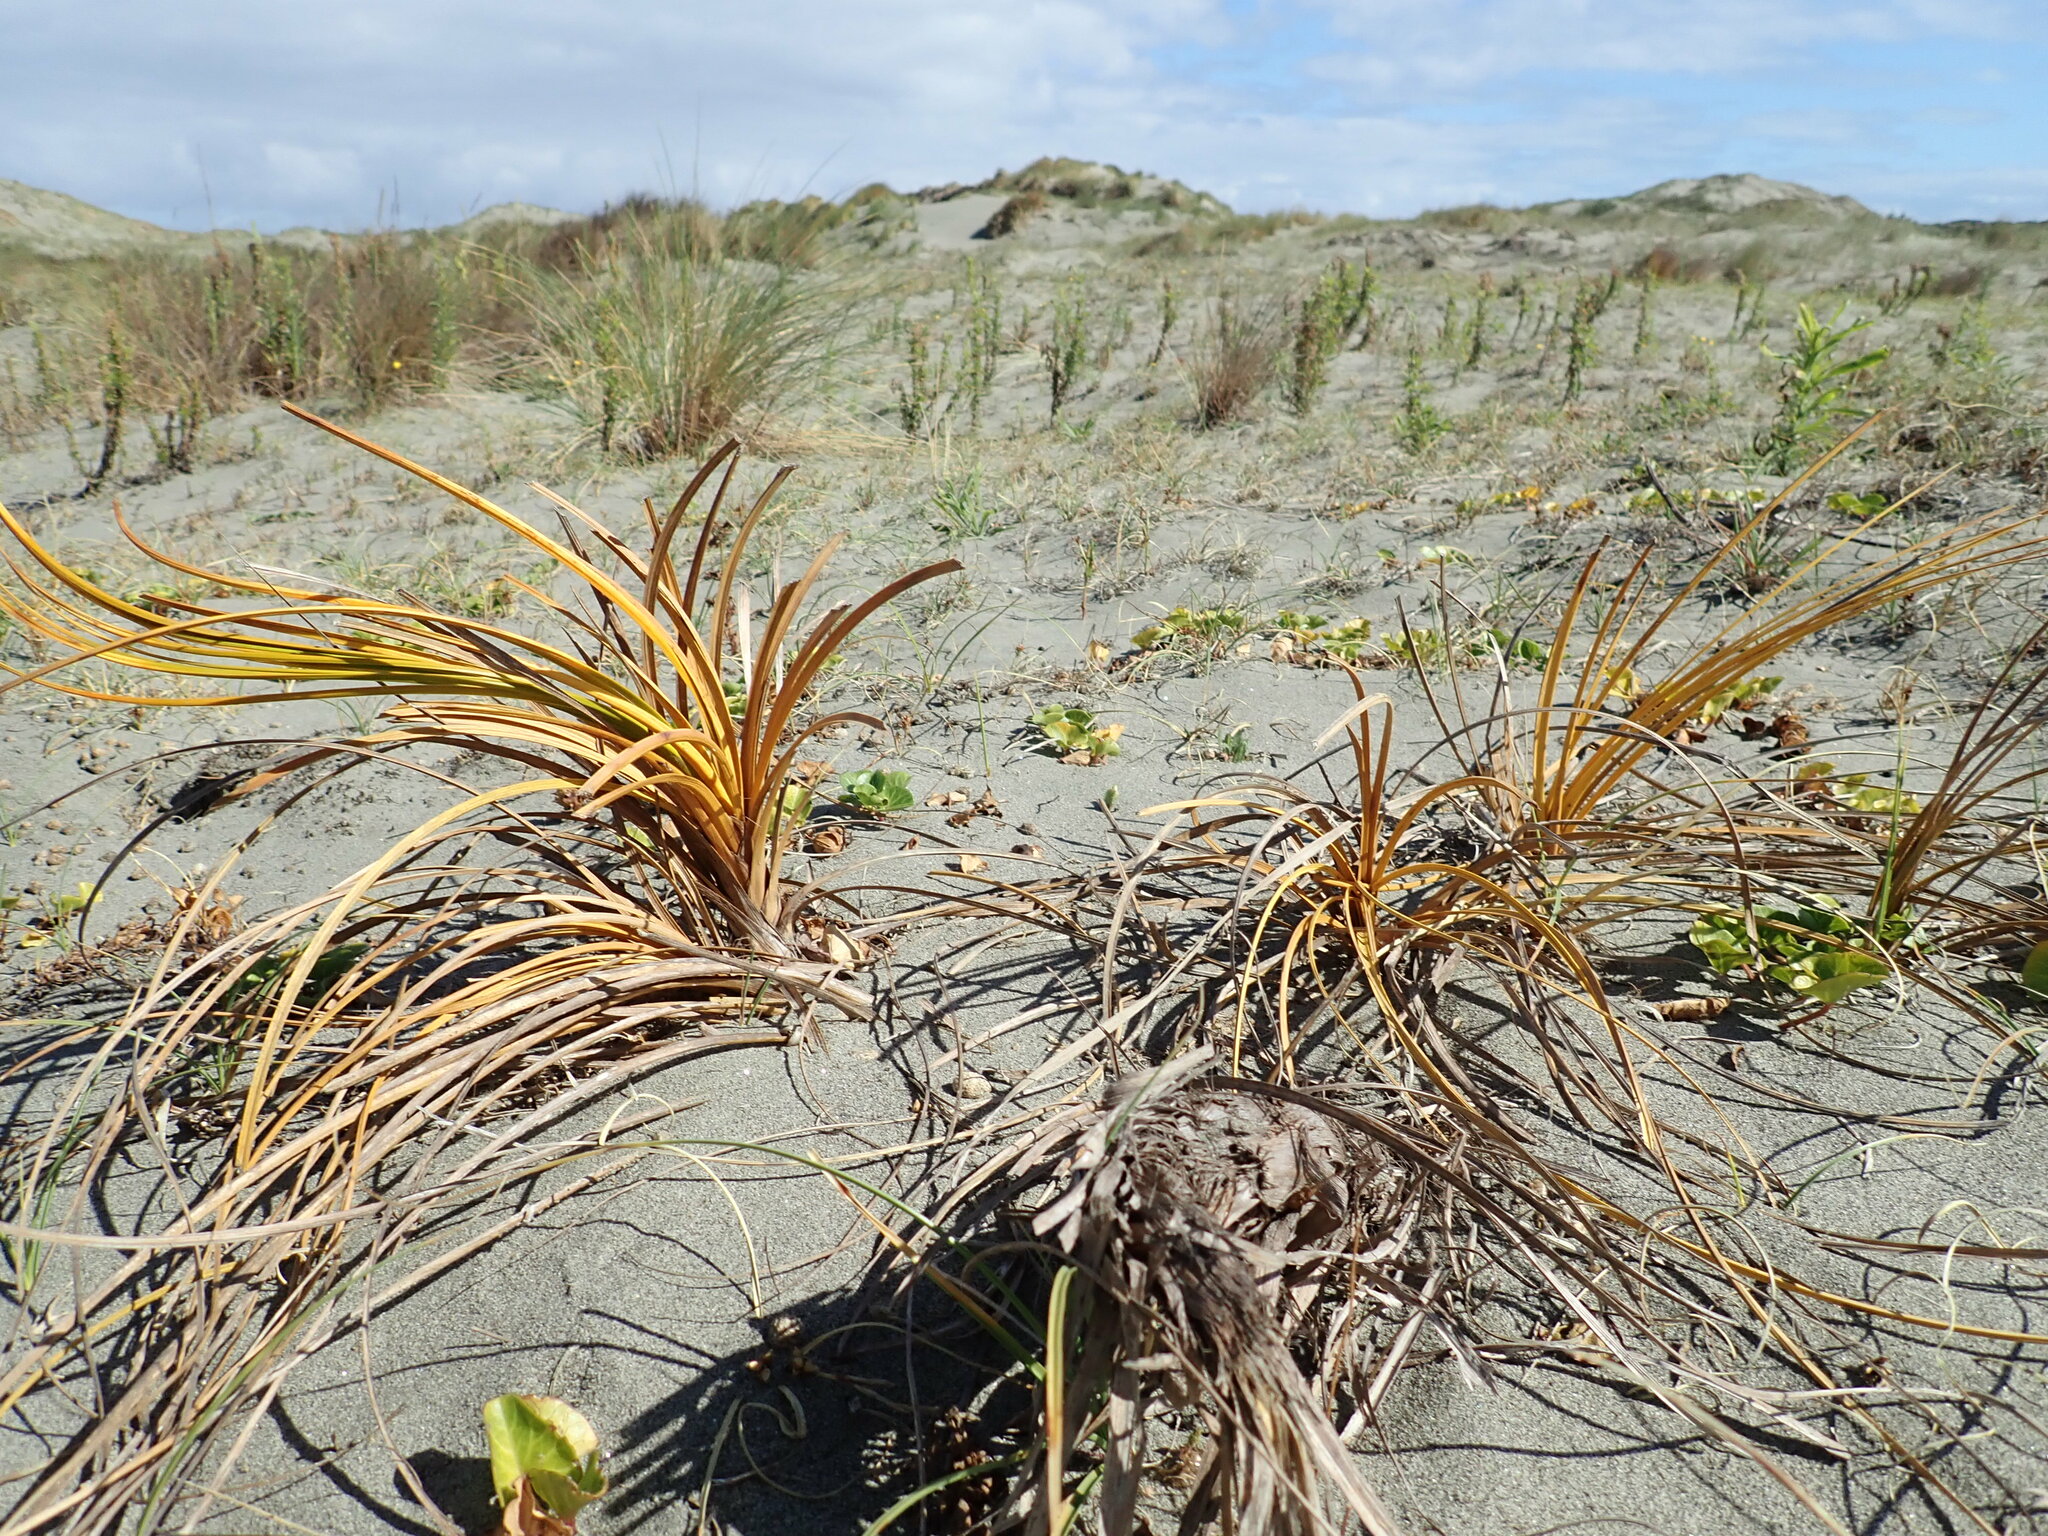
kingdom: Plantae
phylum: Tracheophyta
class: Liliopsida
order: Poales
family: Cyperaceae
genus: Ficinia
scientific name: Ficinia spiralis
